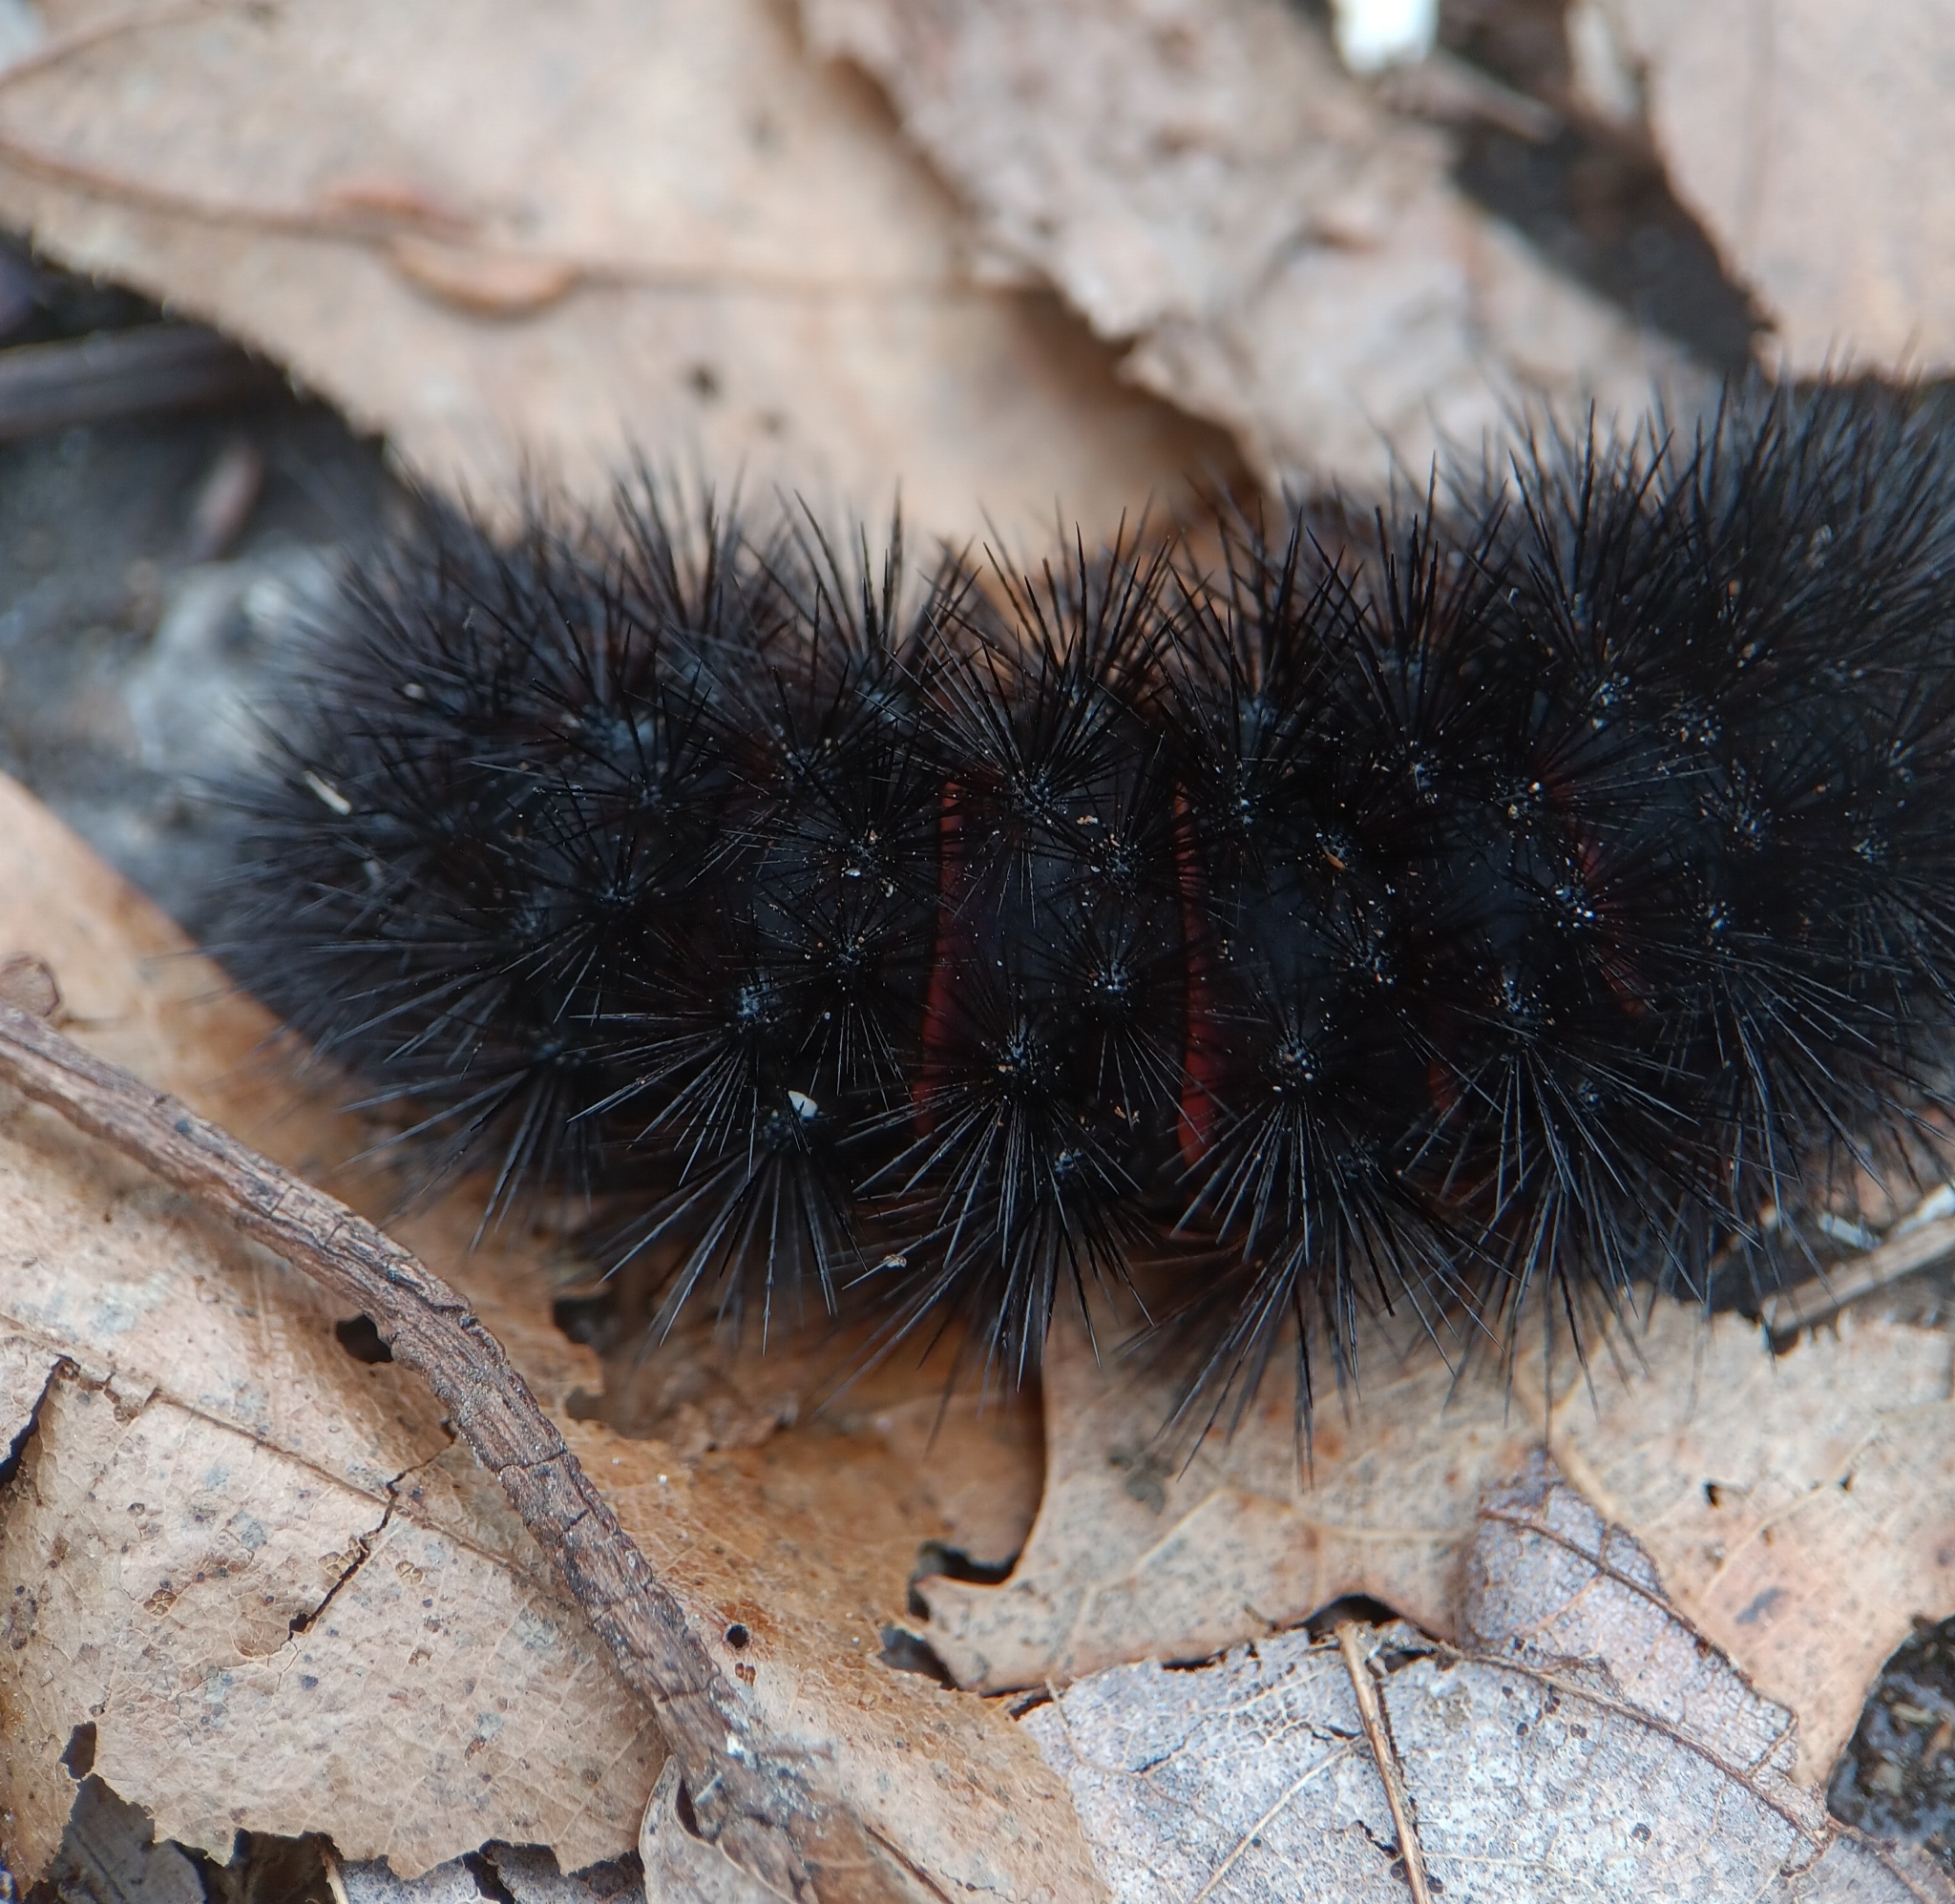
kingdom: Animalia
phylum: Arthropoda
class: Insecta
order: Lepidoptera
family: Erebidae
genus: Hypercompe
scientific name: Hypercompe scribonia
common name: Giant leopard moth
